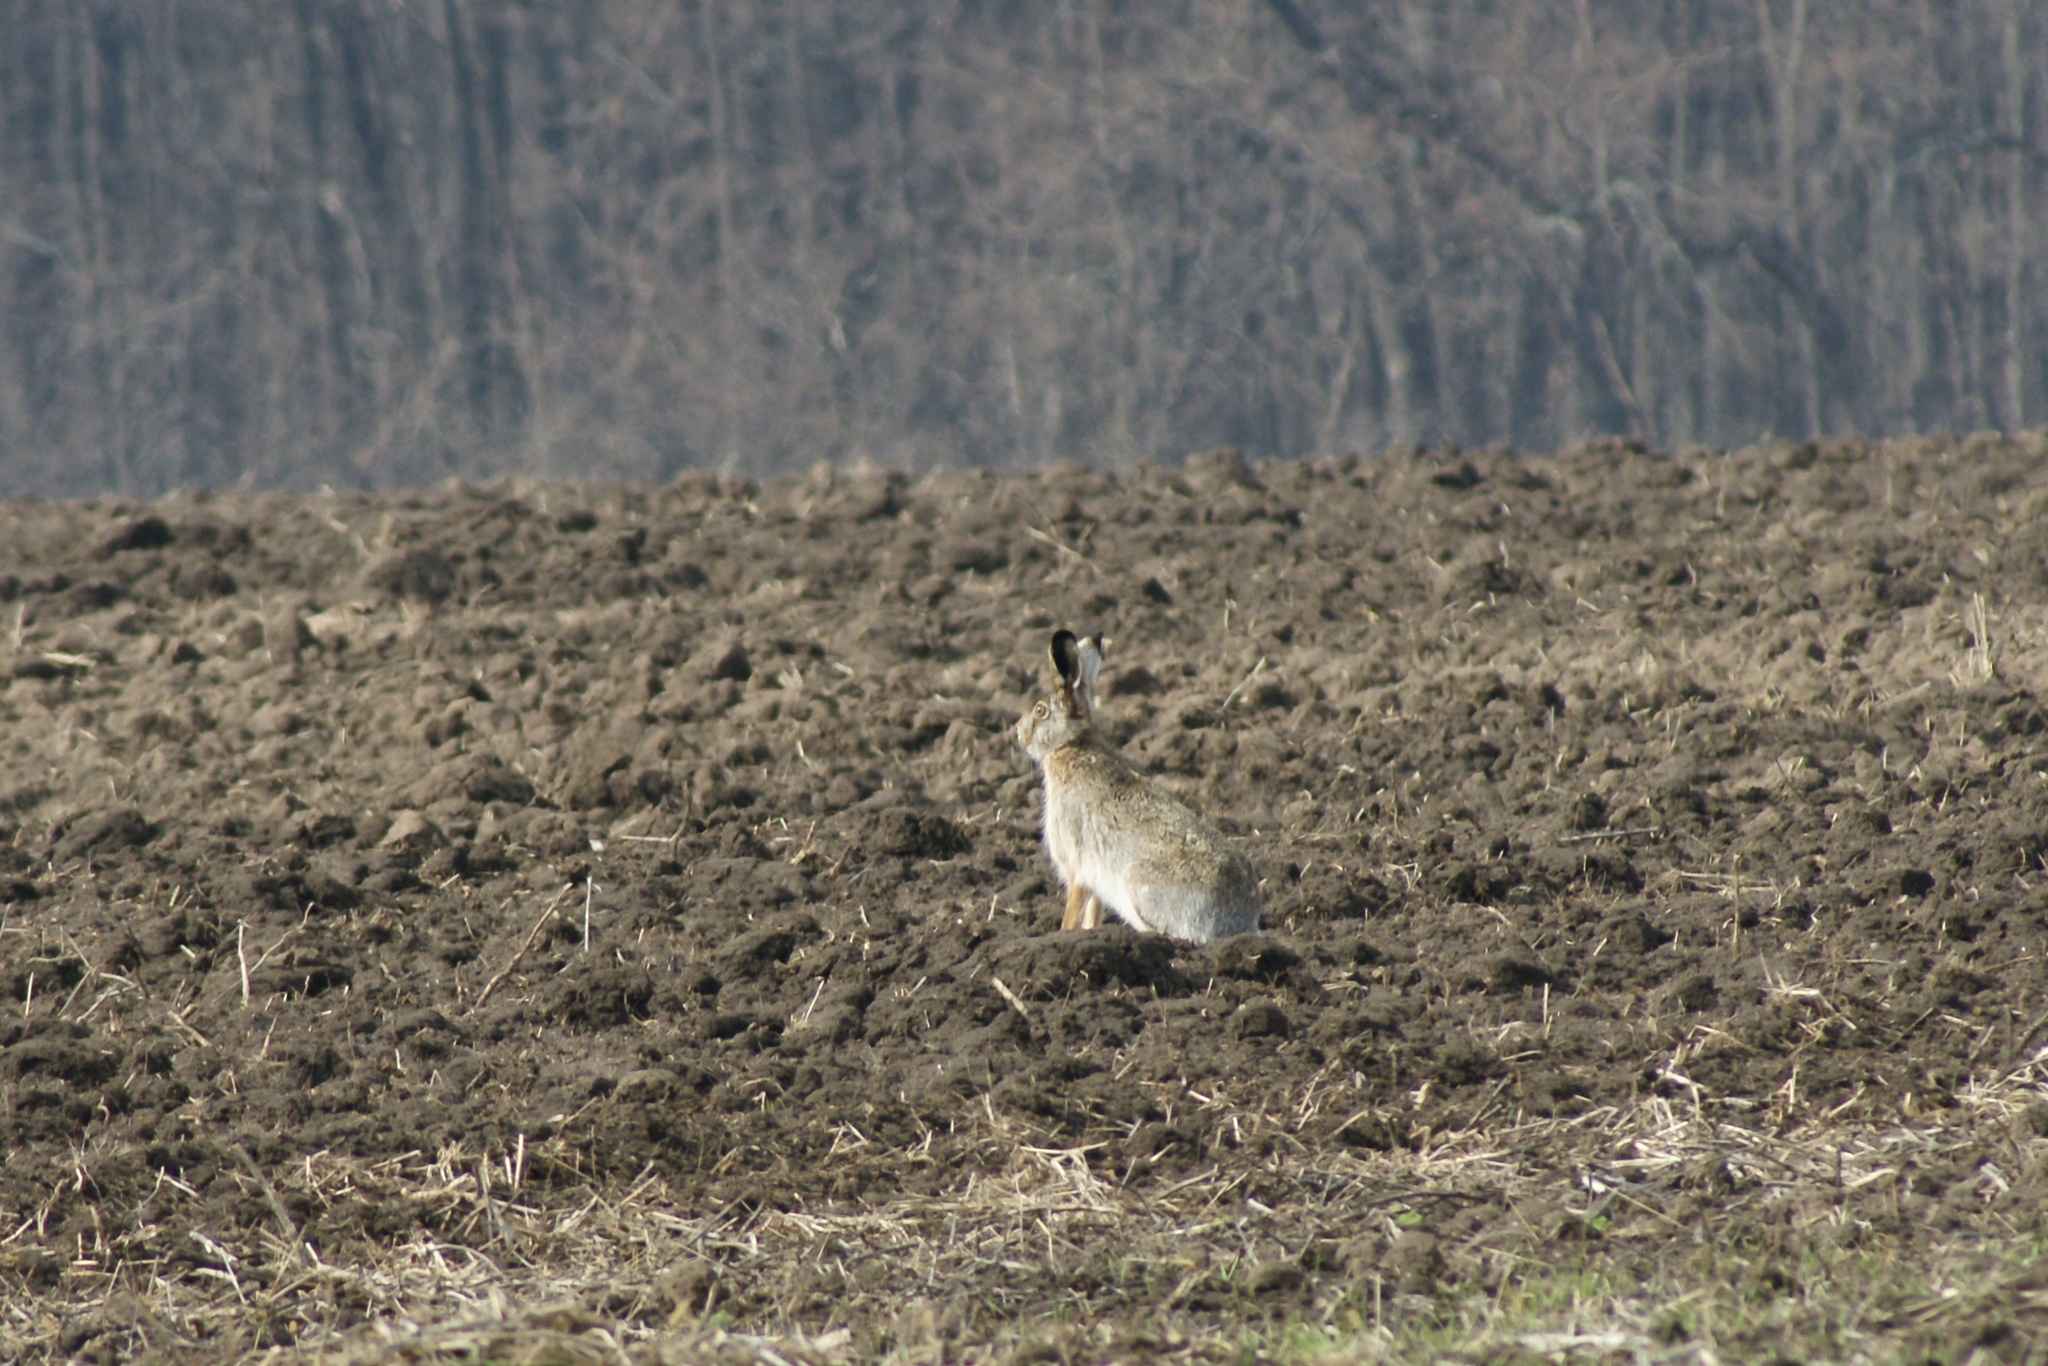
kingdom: Animalia
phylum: Chordata
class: Mammalia
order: Lagomorpha
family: Leporidae
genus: Lepus
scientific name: Lepus europaeus
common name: European hare
